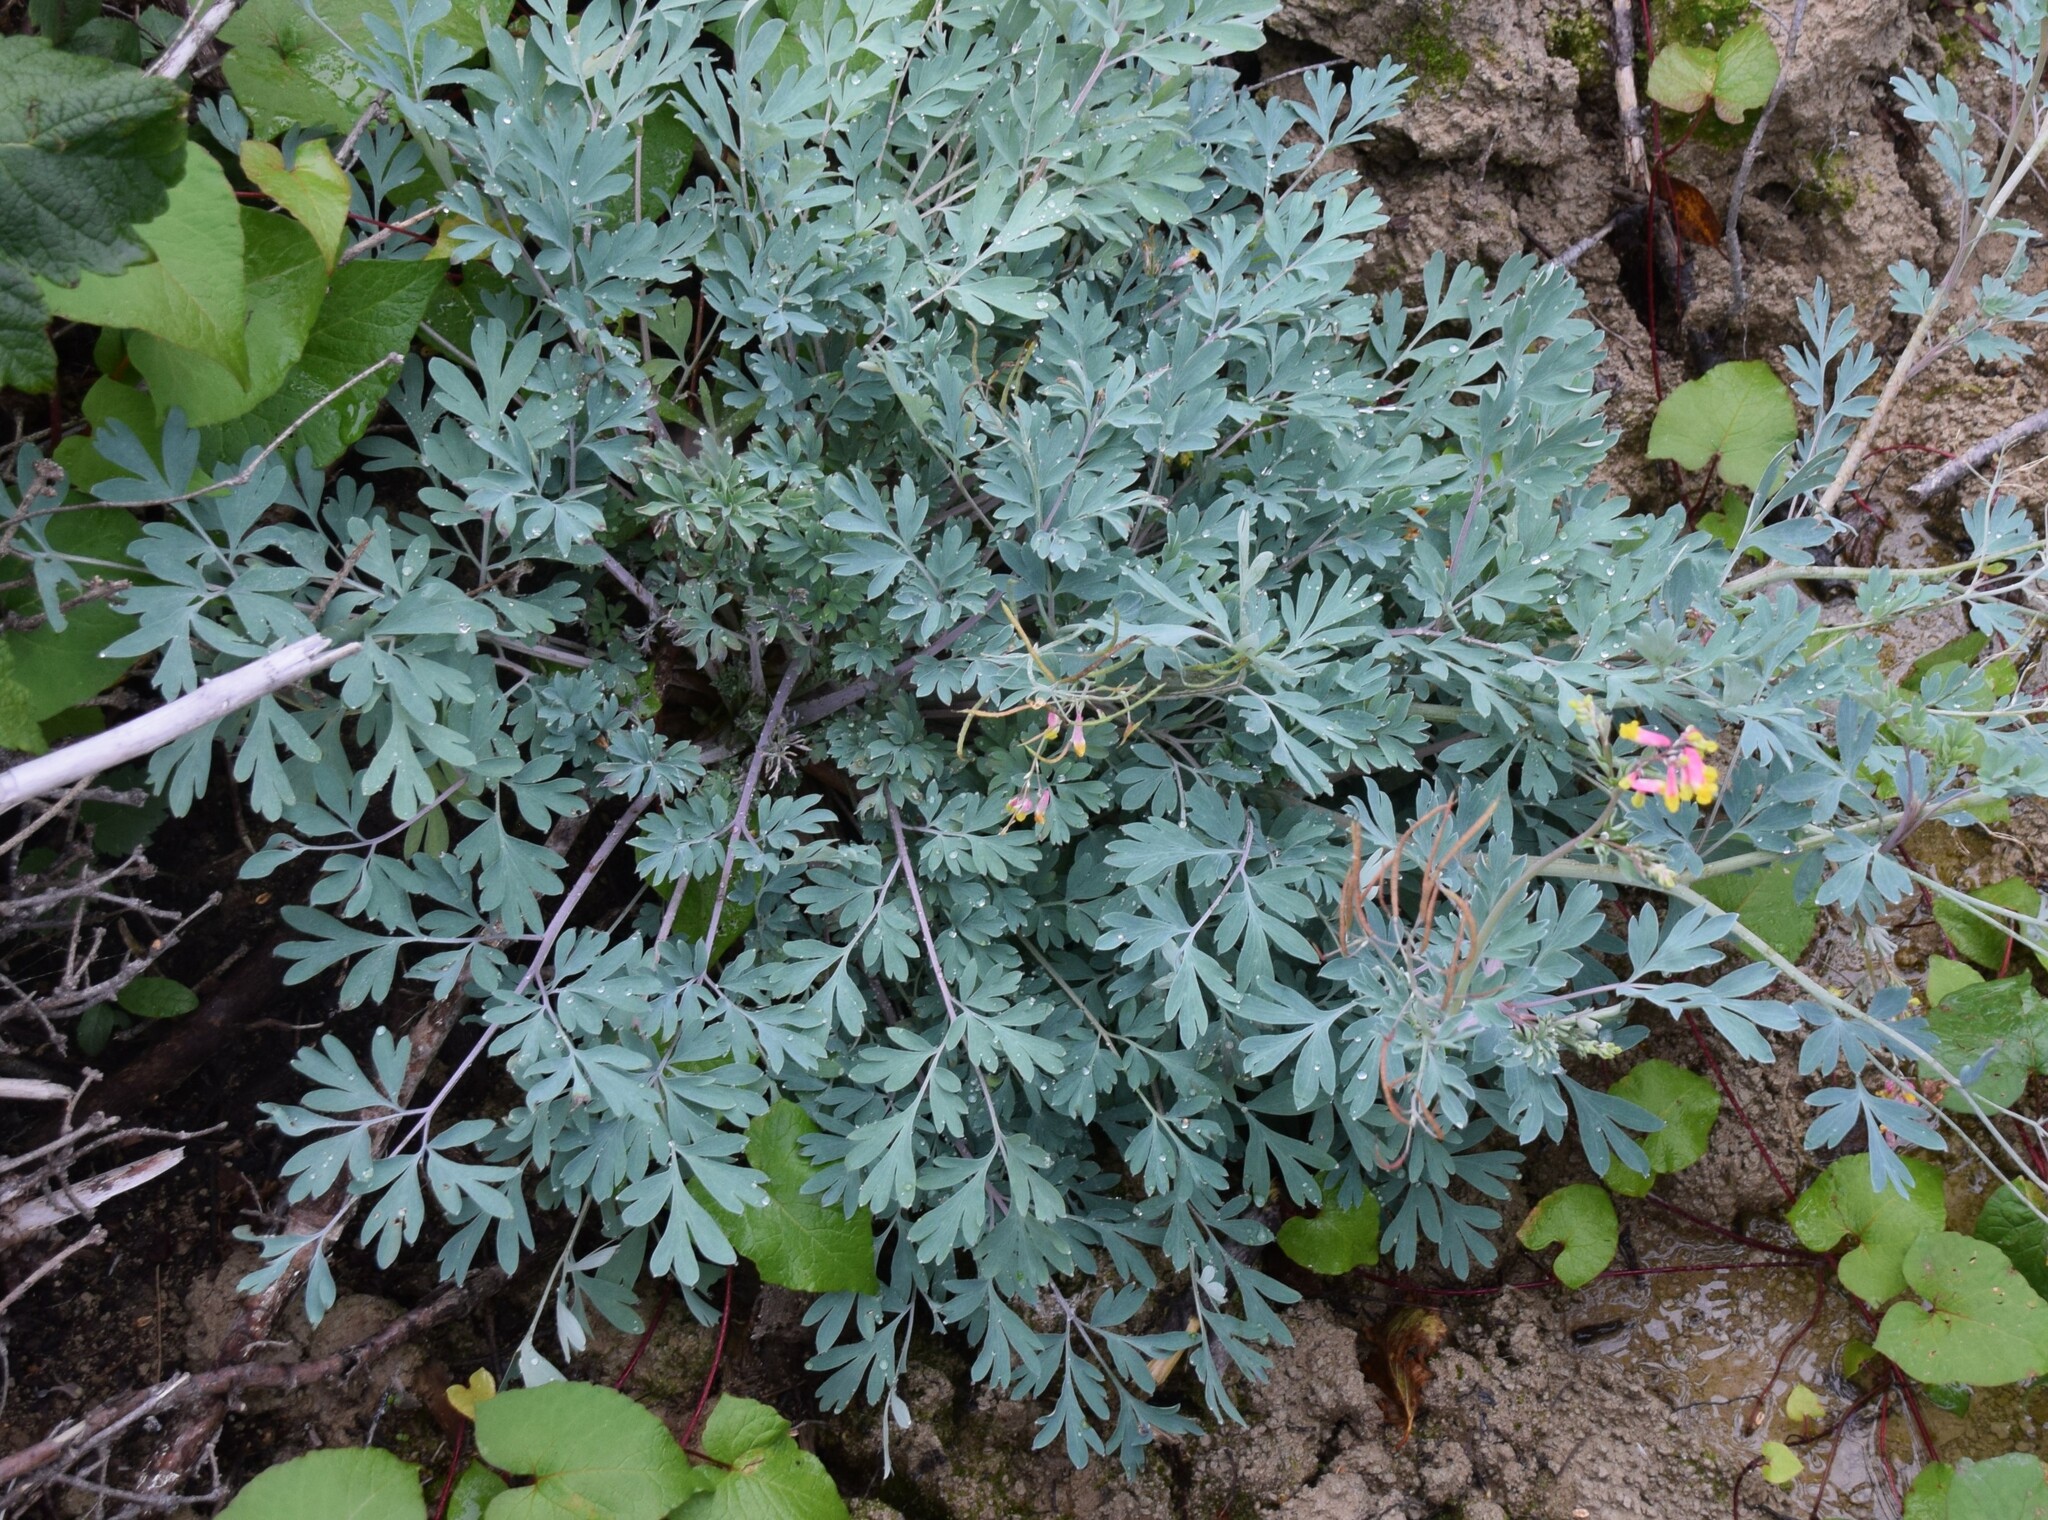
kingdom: Plantae
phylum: Tracheophyta
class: Magnoliopsida
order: Ranunculales
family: Papaveraceae
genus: Capnoides
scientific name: Capnoides sempervirens
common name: Rock harlequin
